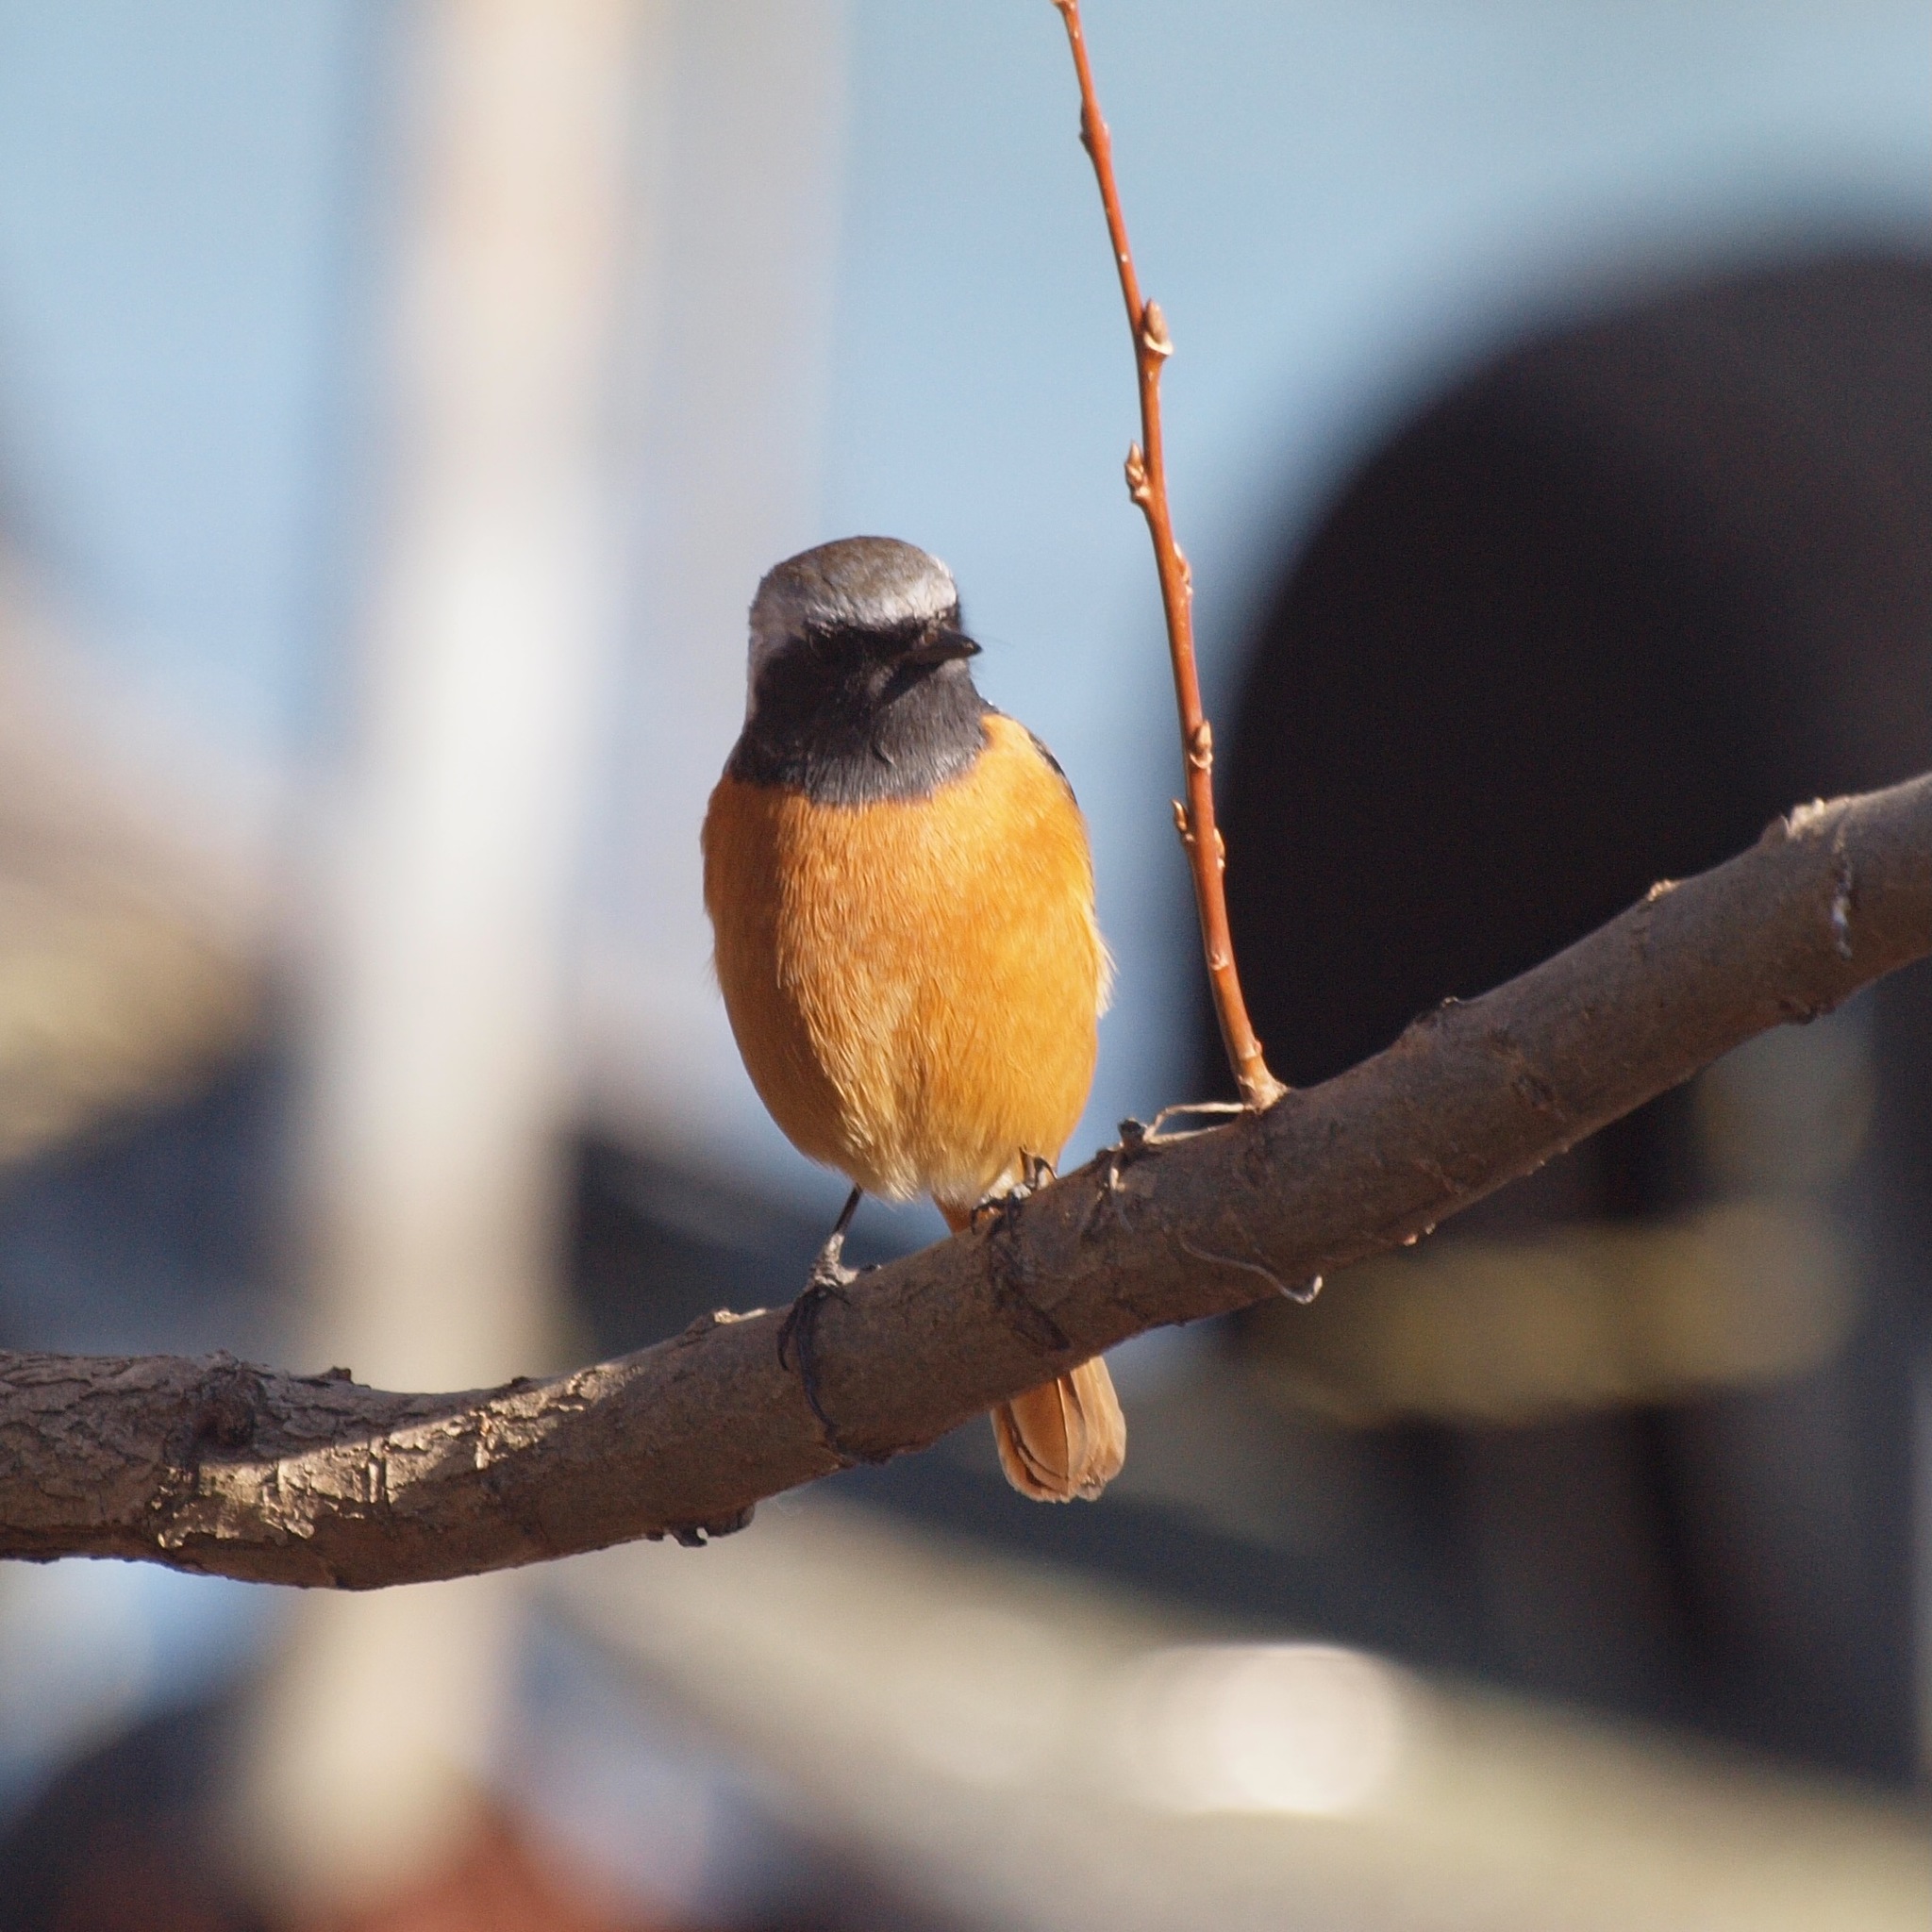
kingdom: Animalia
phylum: Chordata
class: Aves
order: Passeriformes
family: Muscicapidae
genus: Phoenicurus
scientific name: Phoenicurus auroreus
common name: Daurian redstart
